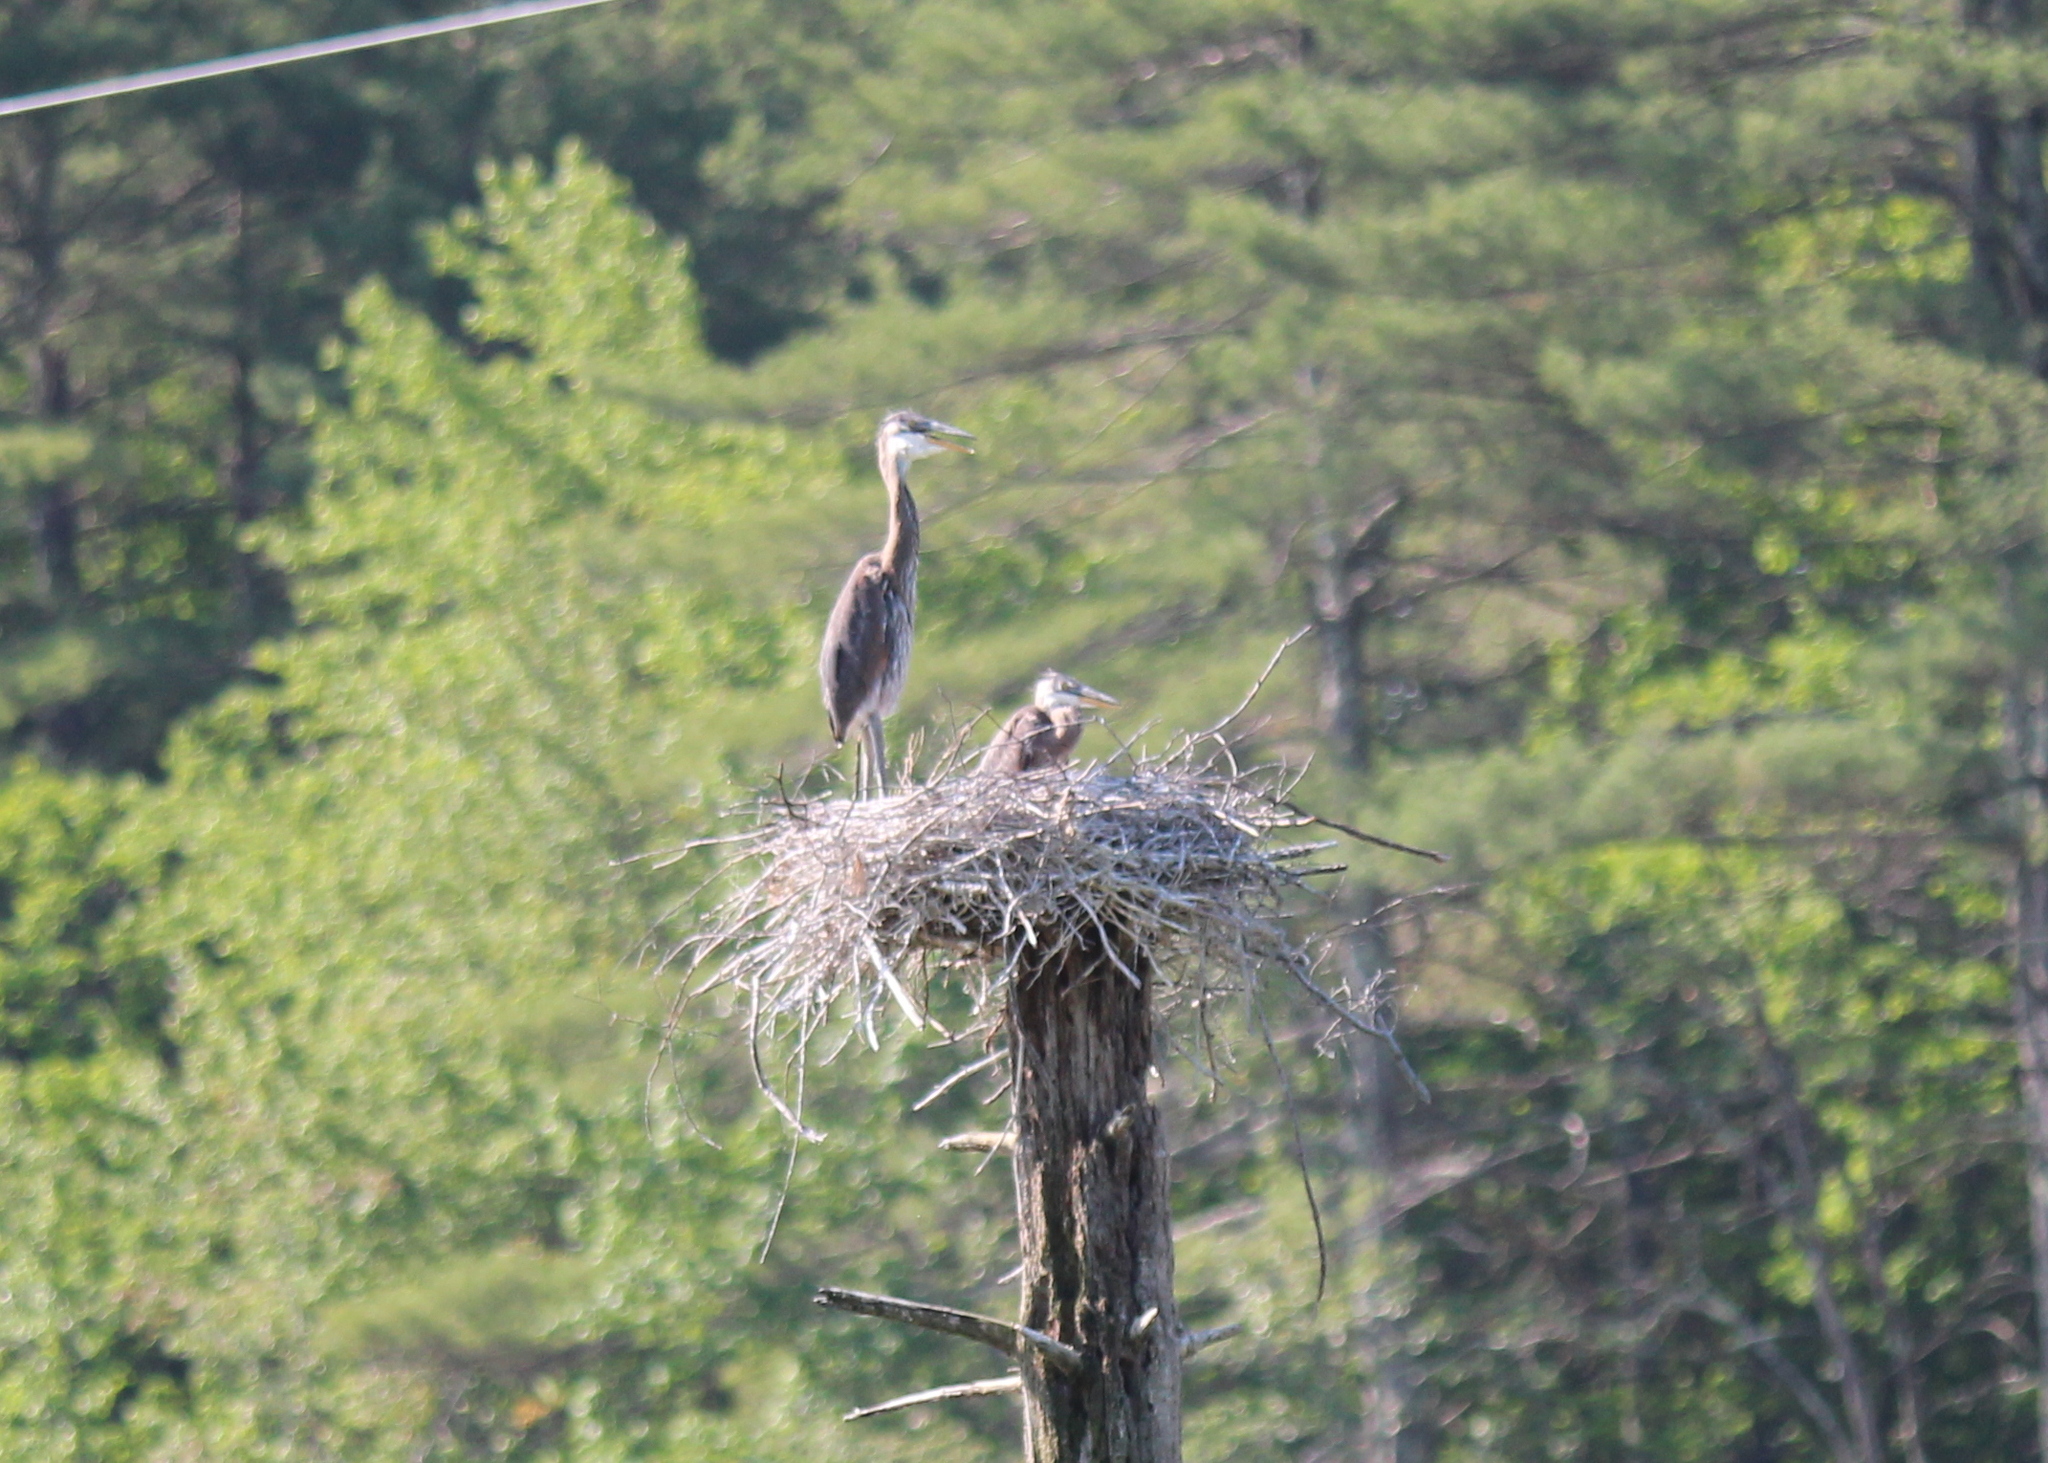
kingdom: Animalia
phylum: Chordata
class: Aves
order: Pelecaniformes
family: Ardeidae
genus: Ardea
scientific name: Ardea herodias
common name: Great blue heron
